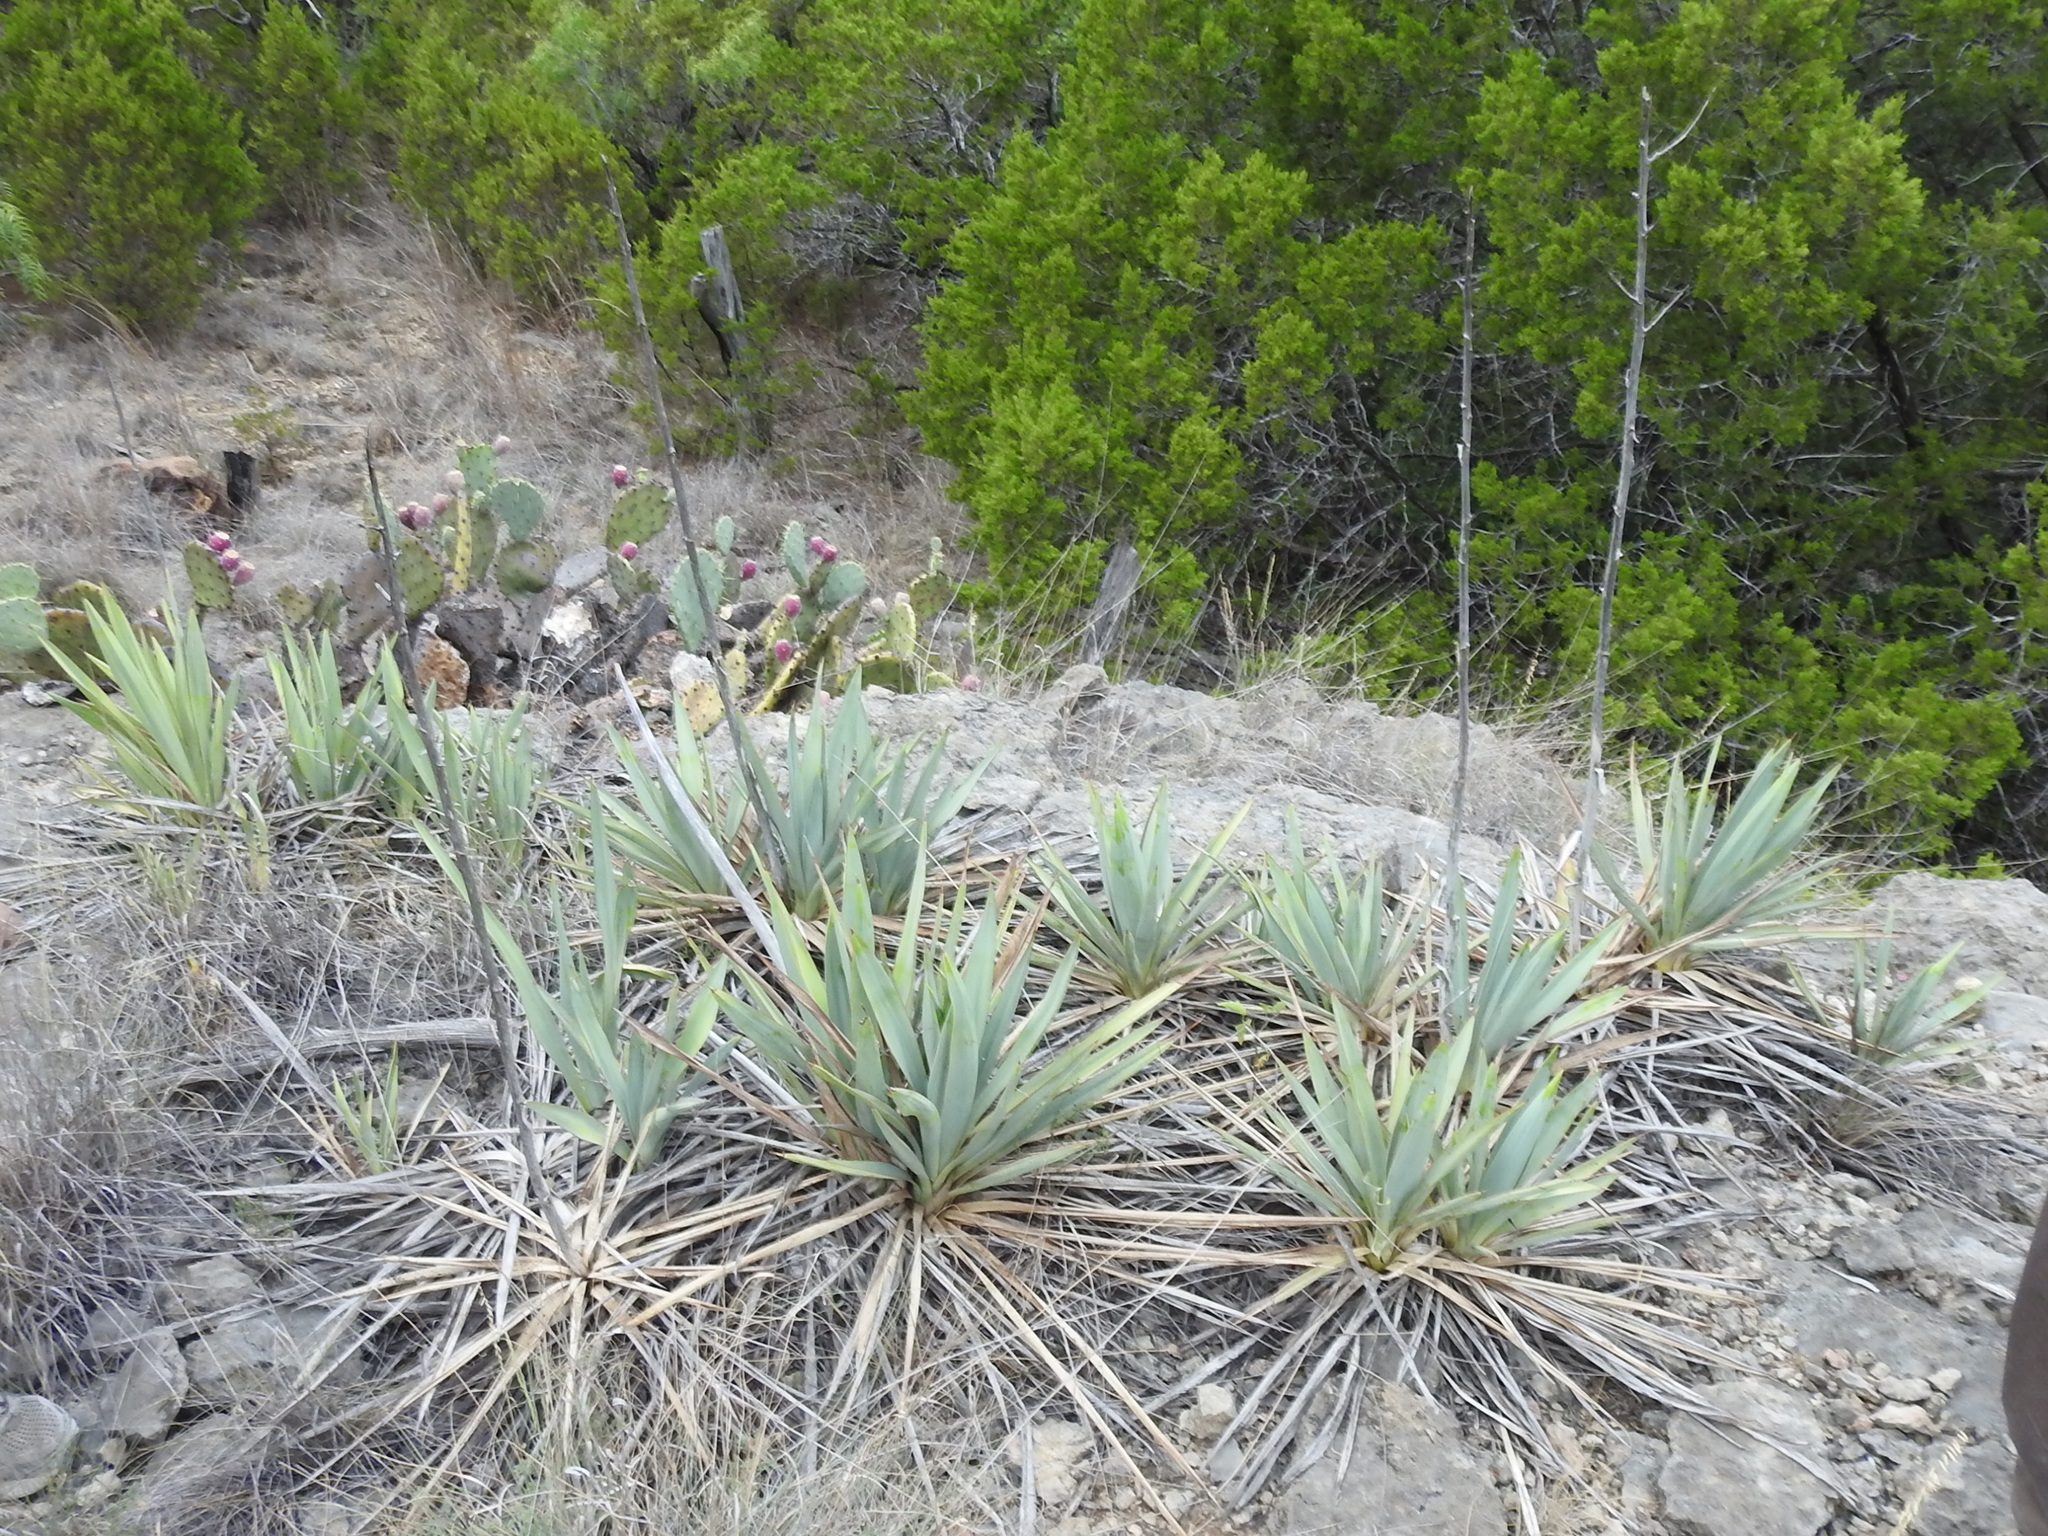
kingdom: Plantae
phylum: Tracheophyta
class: Liliopsida
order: Asparagales
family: Asparagaceae
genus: Yucca
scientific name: Yucca pallida
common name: Pale leaf yucca
